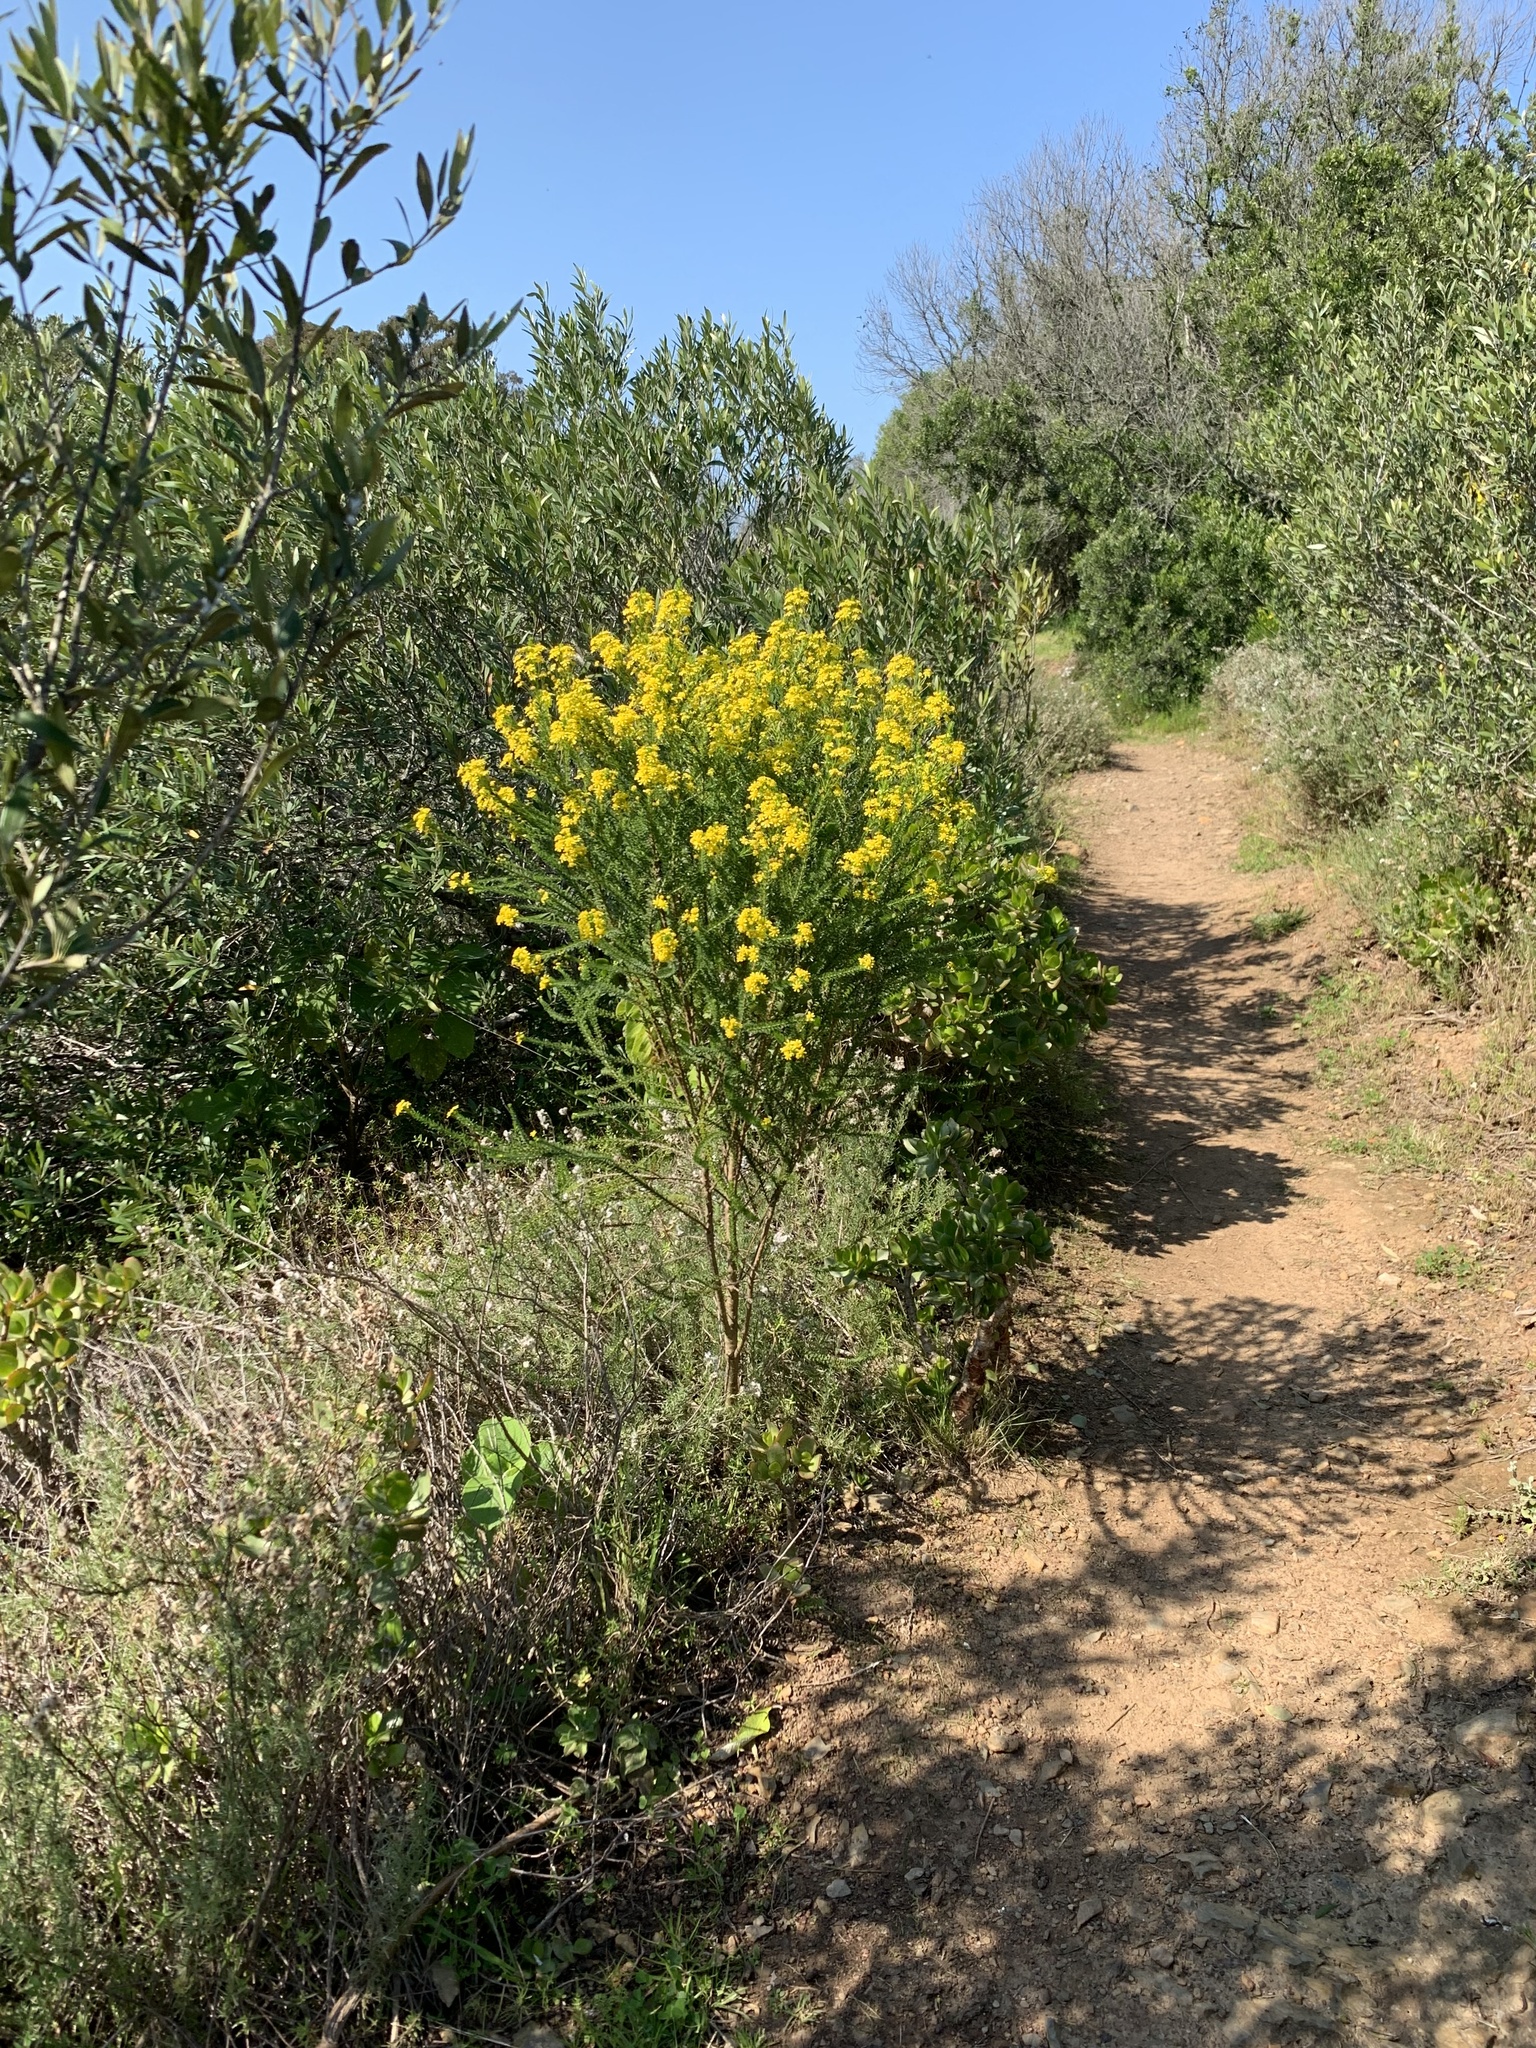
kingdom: Plantae
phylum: Tracheophyta
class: Magnoliopsida
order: Asterales
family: Asteraceae
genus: Euryops
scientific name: Euryops virgineus
